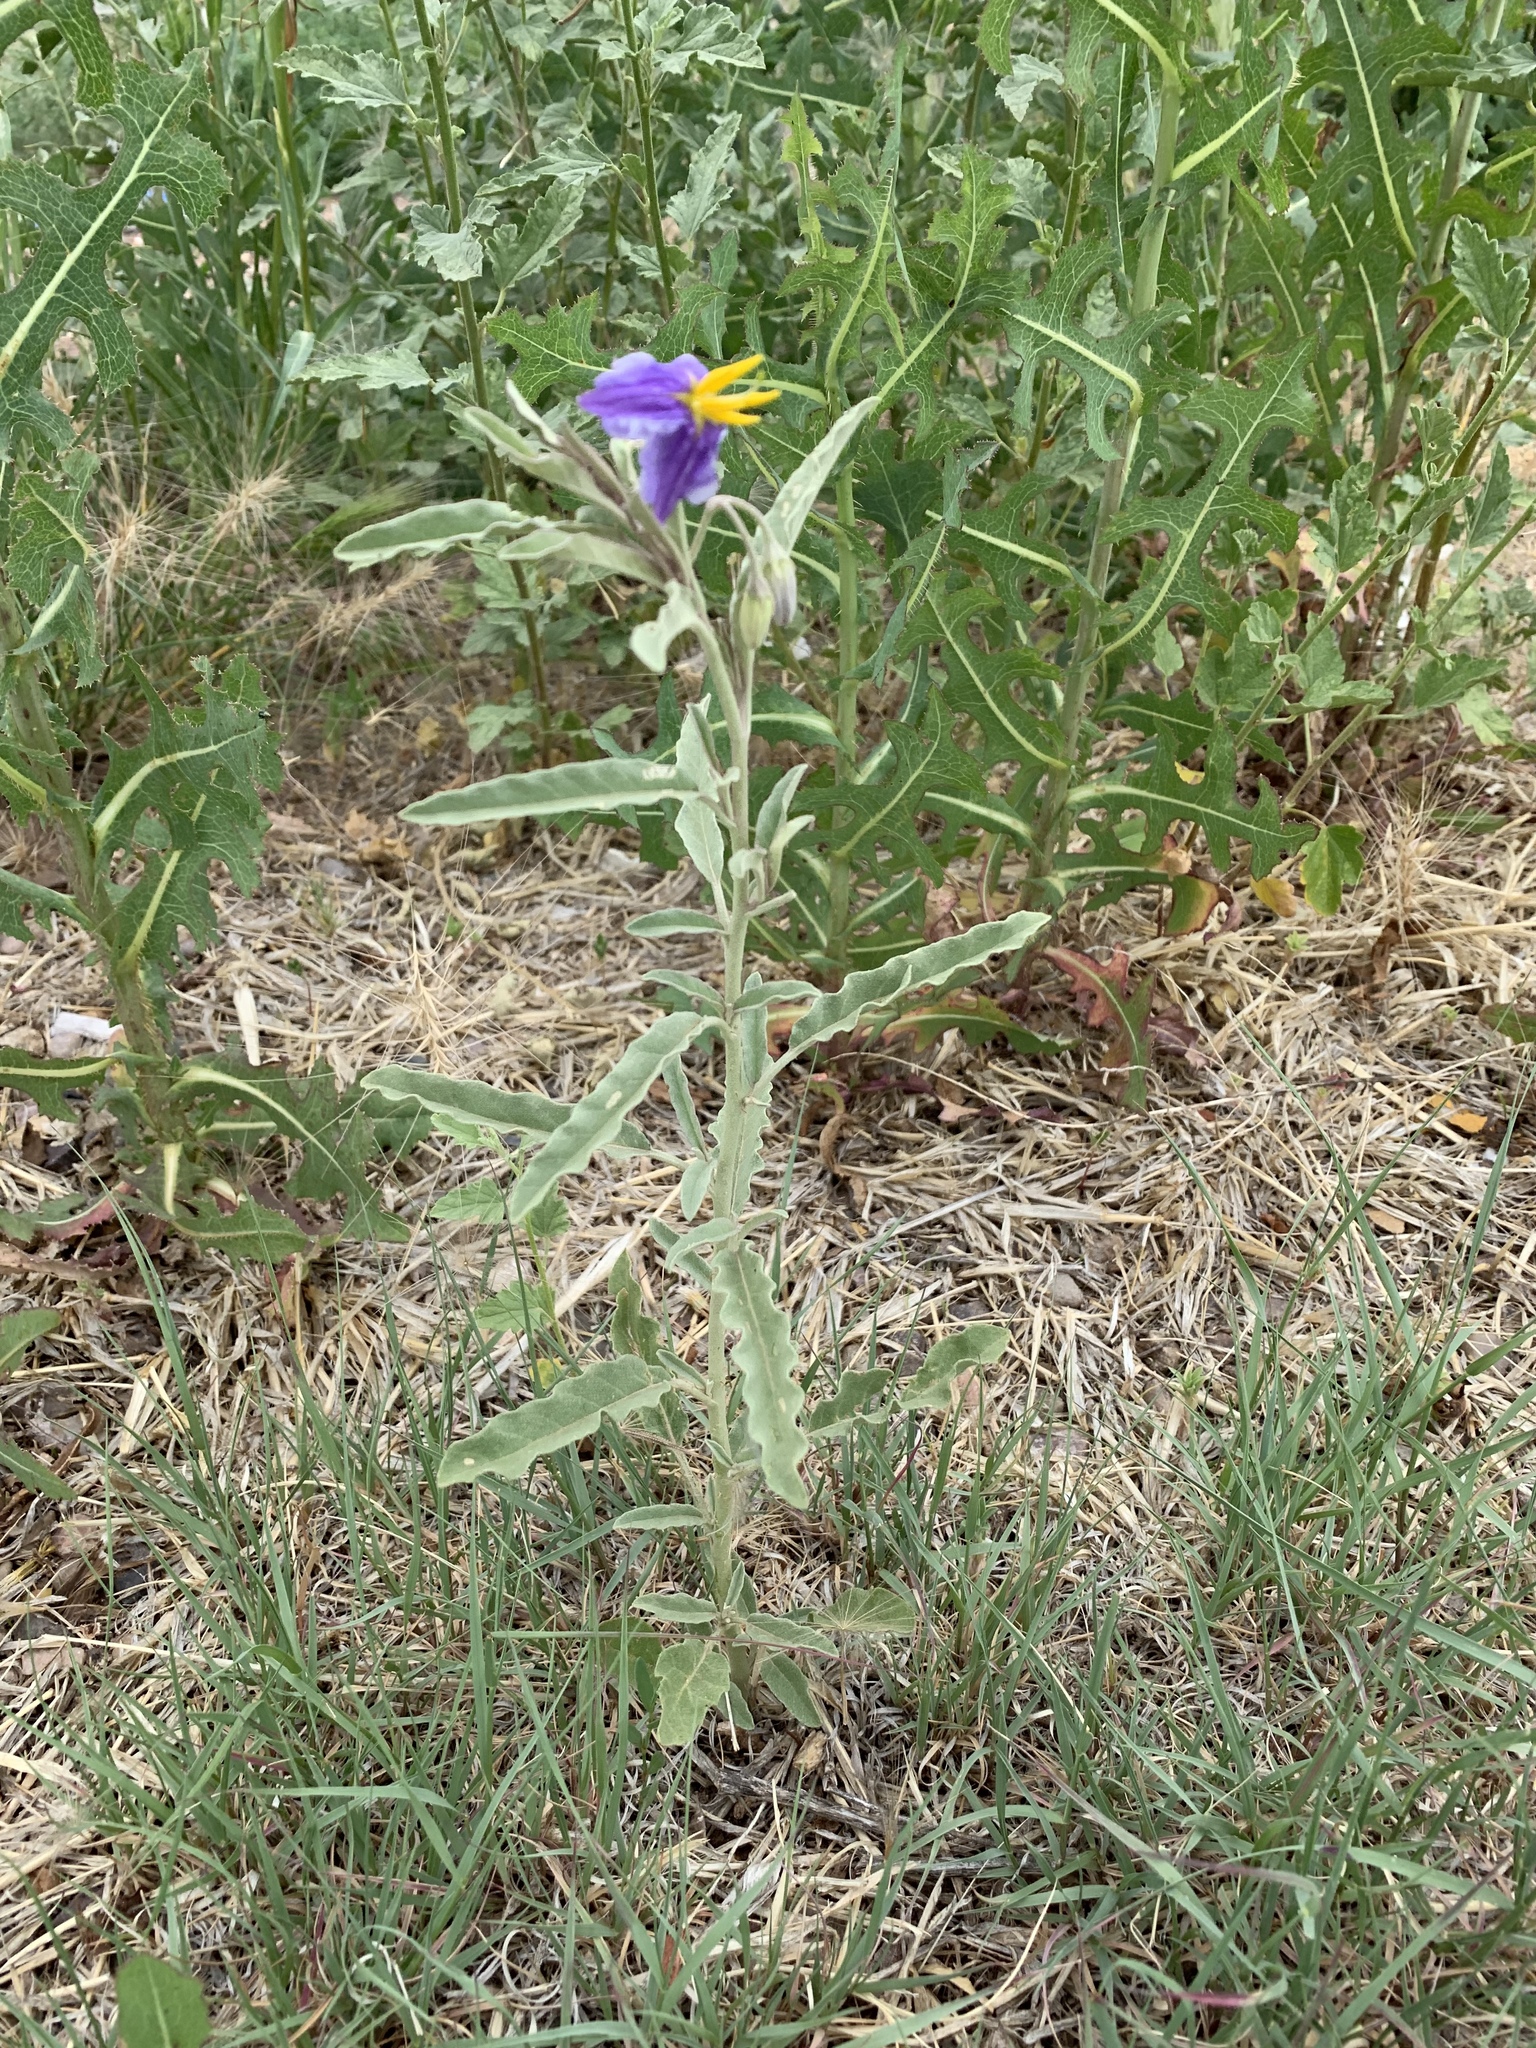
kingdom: Plantae
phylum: Tracheophyta
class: Magnoliopsida
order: Solanales
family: Solanaceae
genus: Solanum
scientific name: Solanum elaeagnifolium
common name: Silverleaf nightshade
